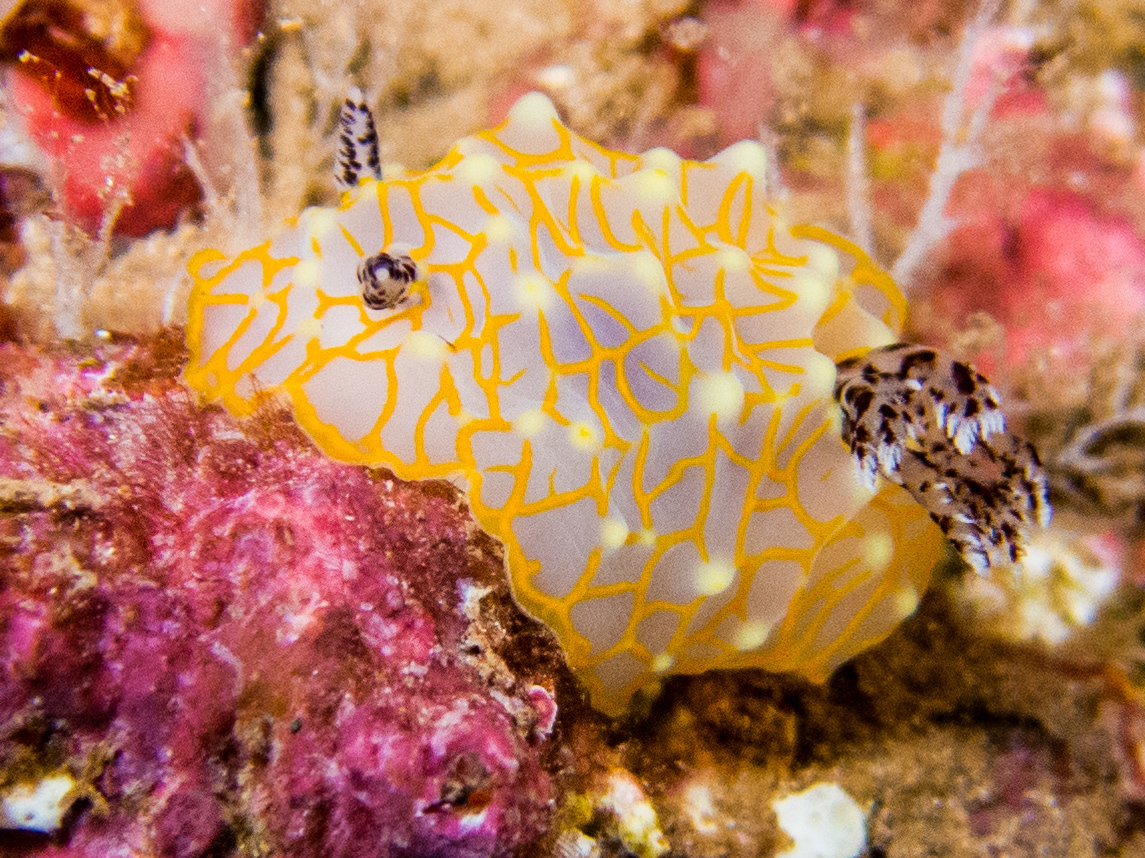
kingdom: Animalia
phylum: Mollusca
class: Gastropoda
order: Nudibranchia
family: Discodorididae
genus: Halgerda
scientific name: Halgerda terramtuentis
